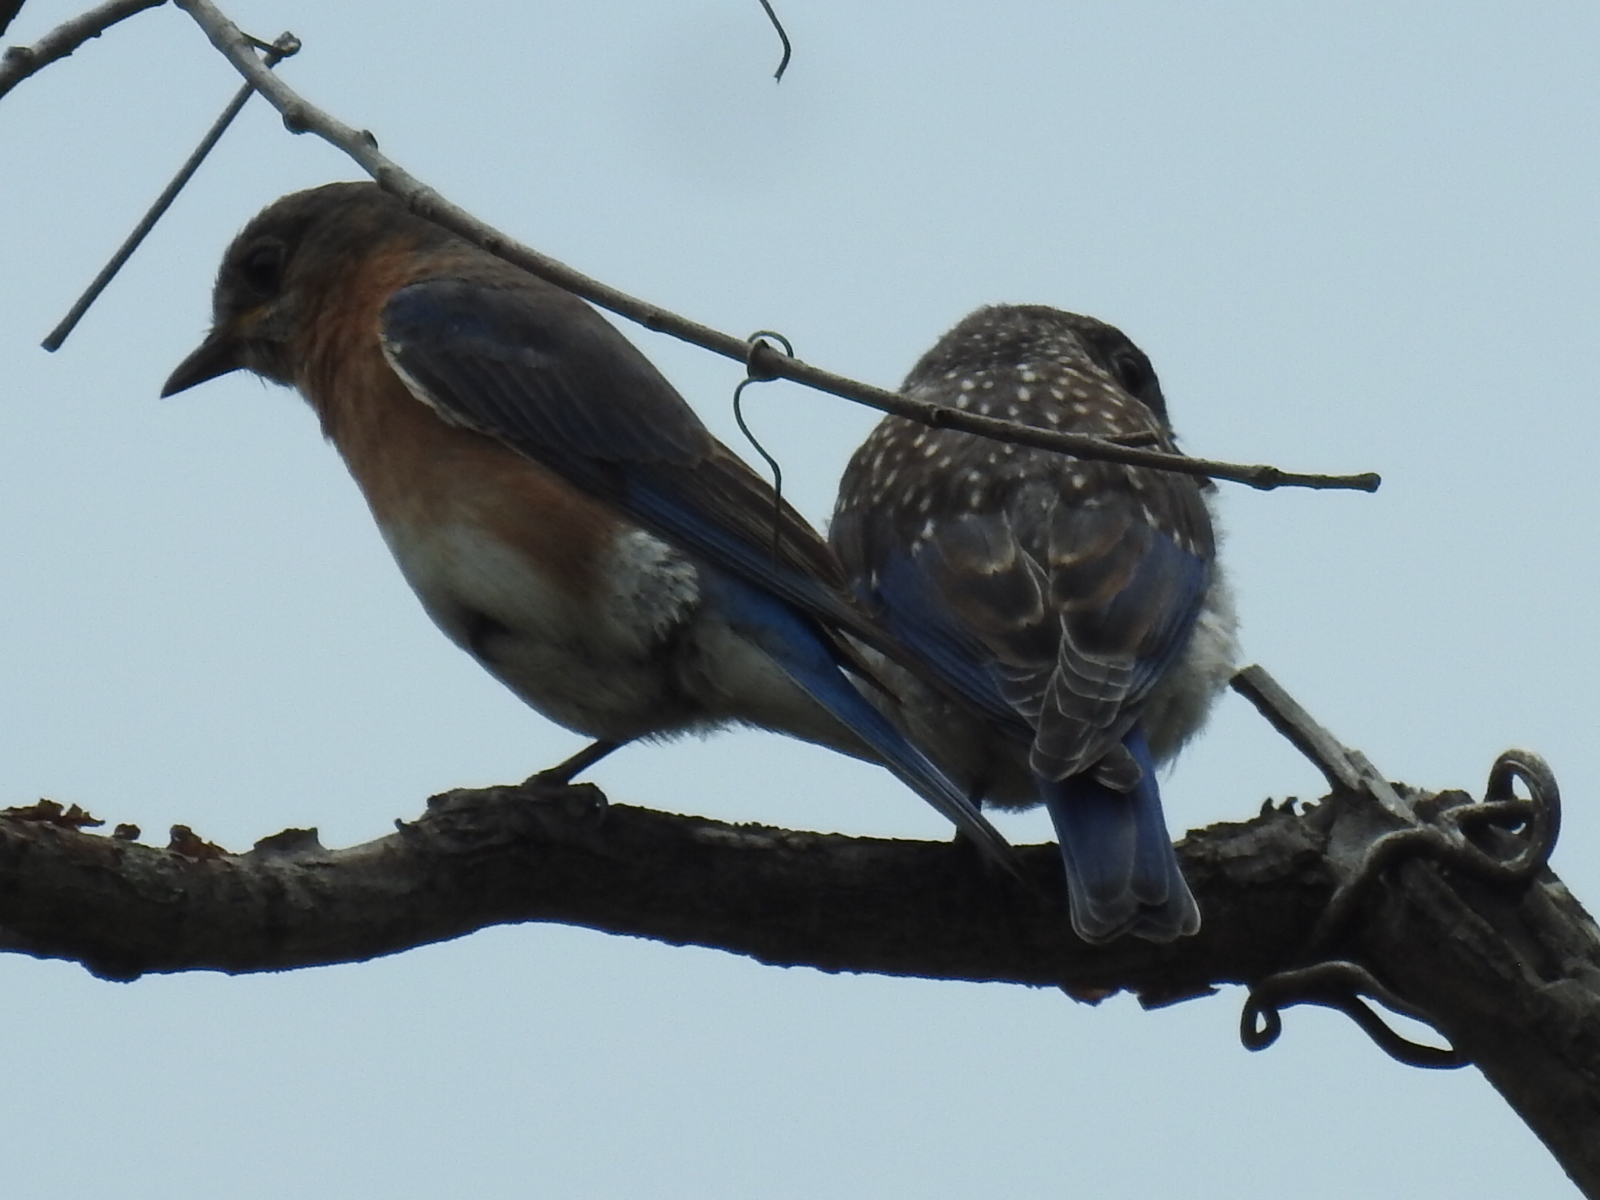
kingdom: Animalia
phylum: Chordata
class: Aves
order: Passeriformes
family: Turdidae
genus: Sialia
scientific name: Sialia sialis
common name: Eastern bluebird
